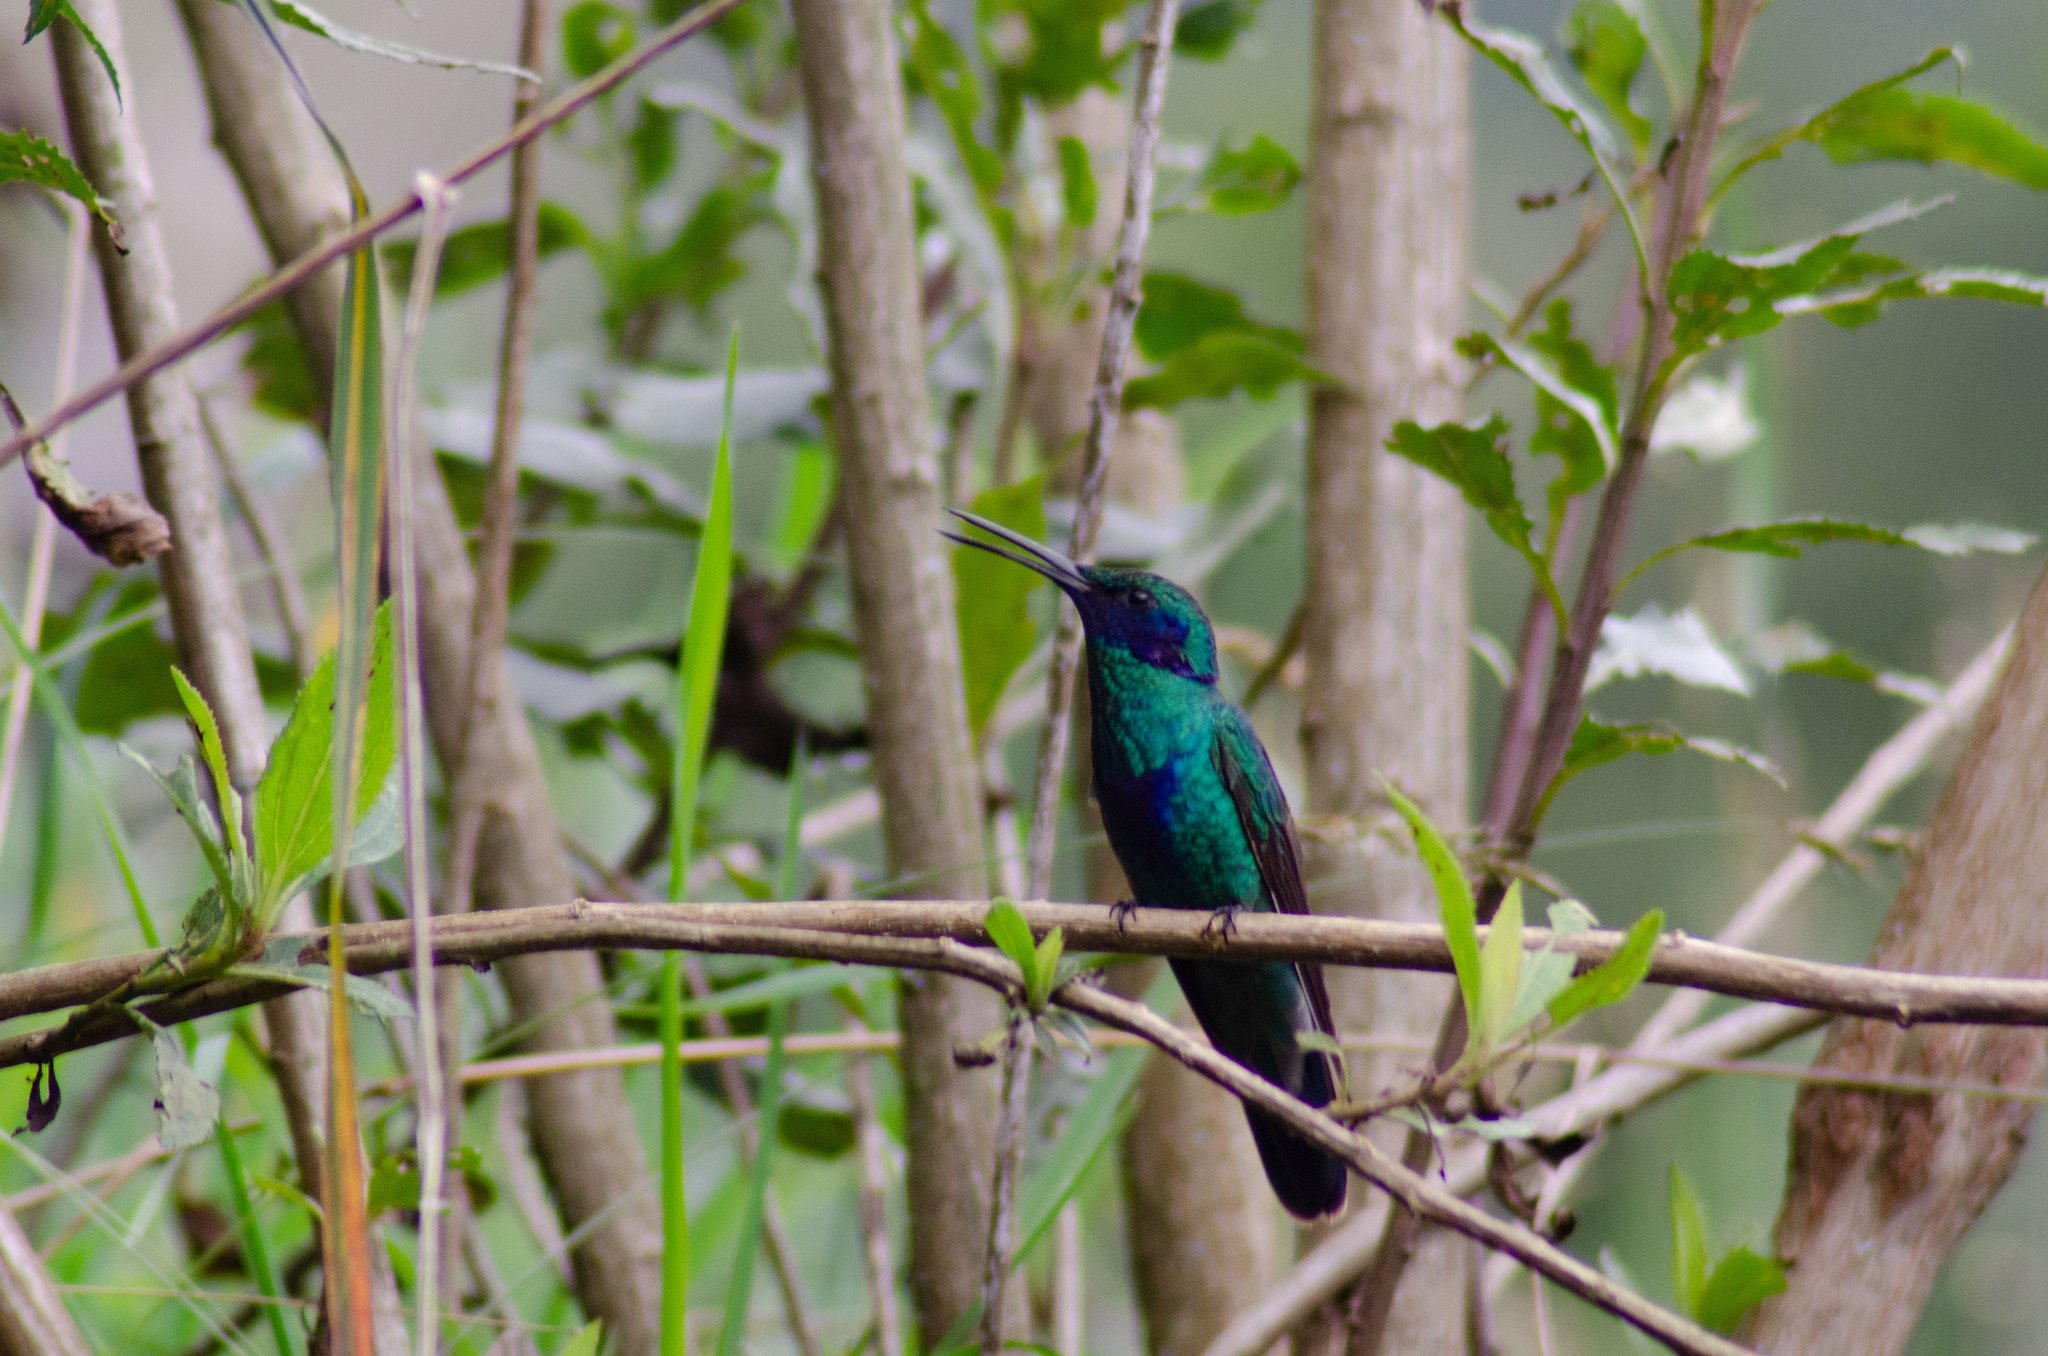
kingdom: Animalia
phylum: Chordata
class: Aves
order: Apodiformes
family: Trochilidae
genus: Colibri
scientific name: Colibri coruscans
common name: Sparkling violetear
